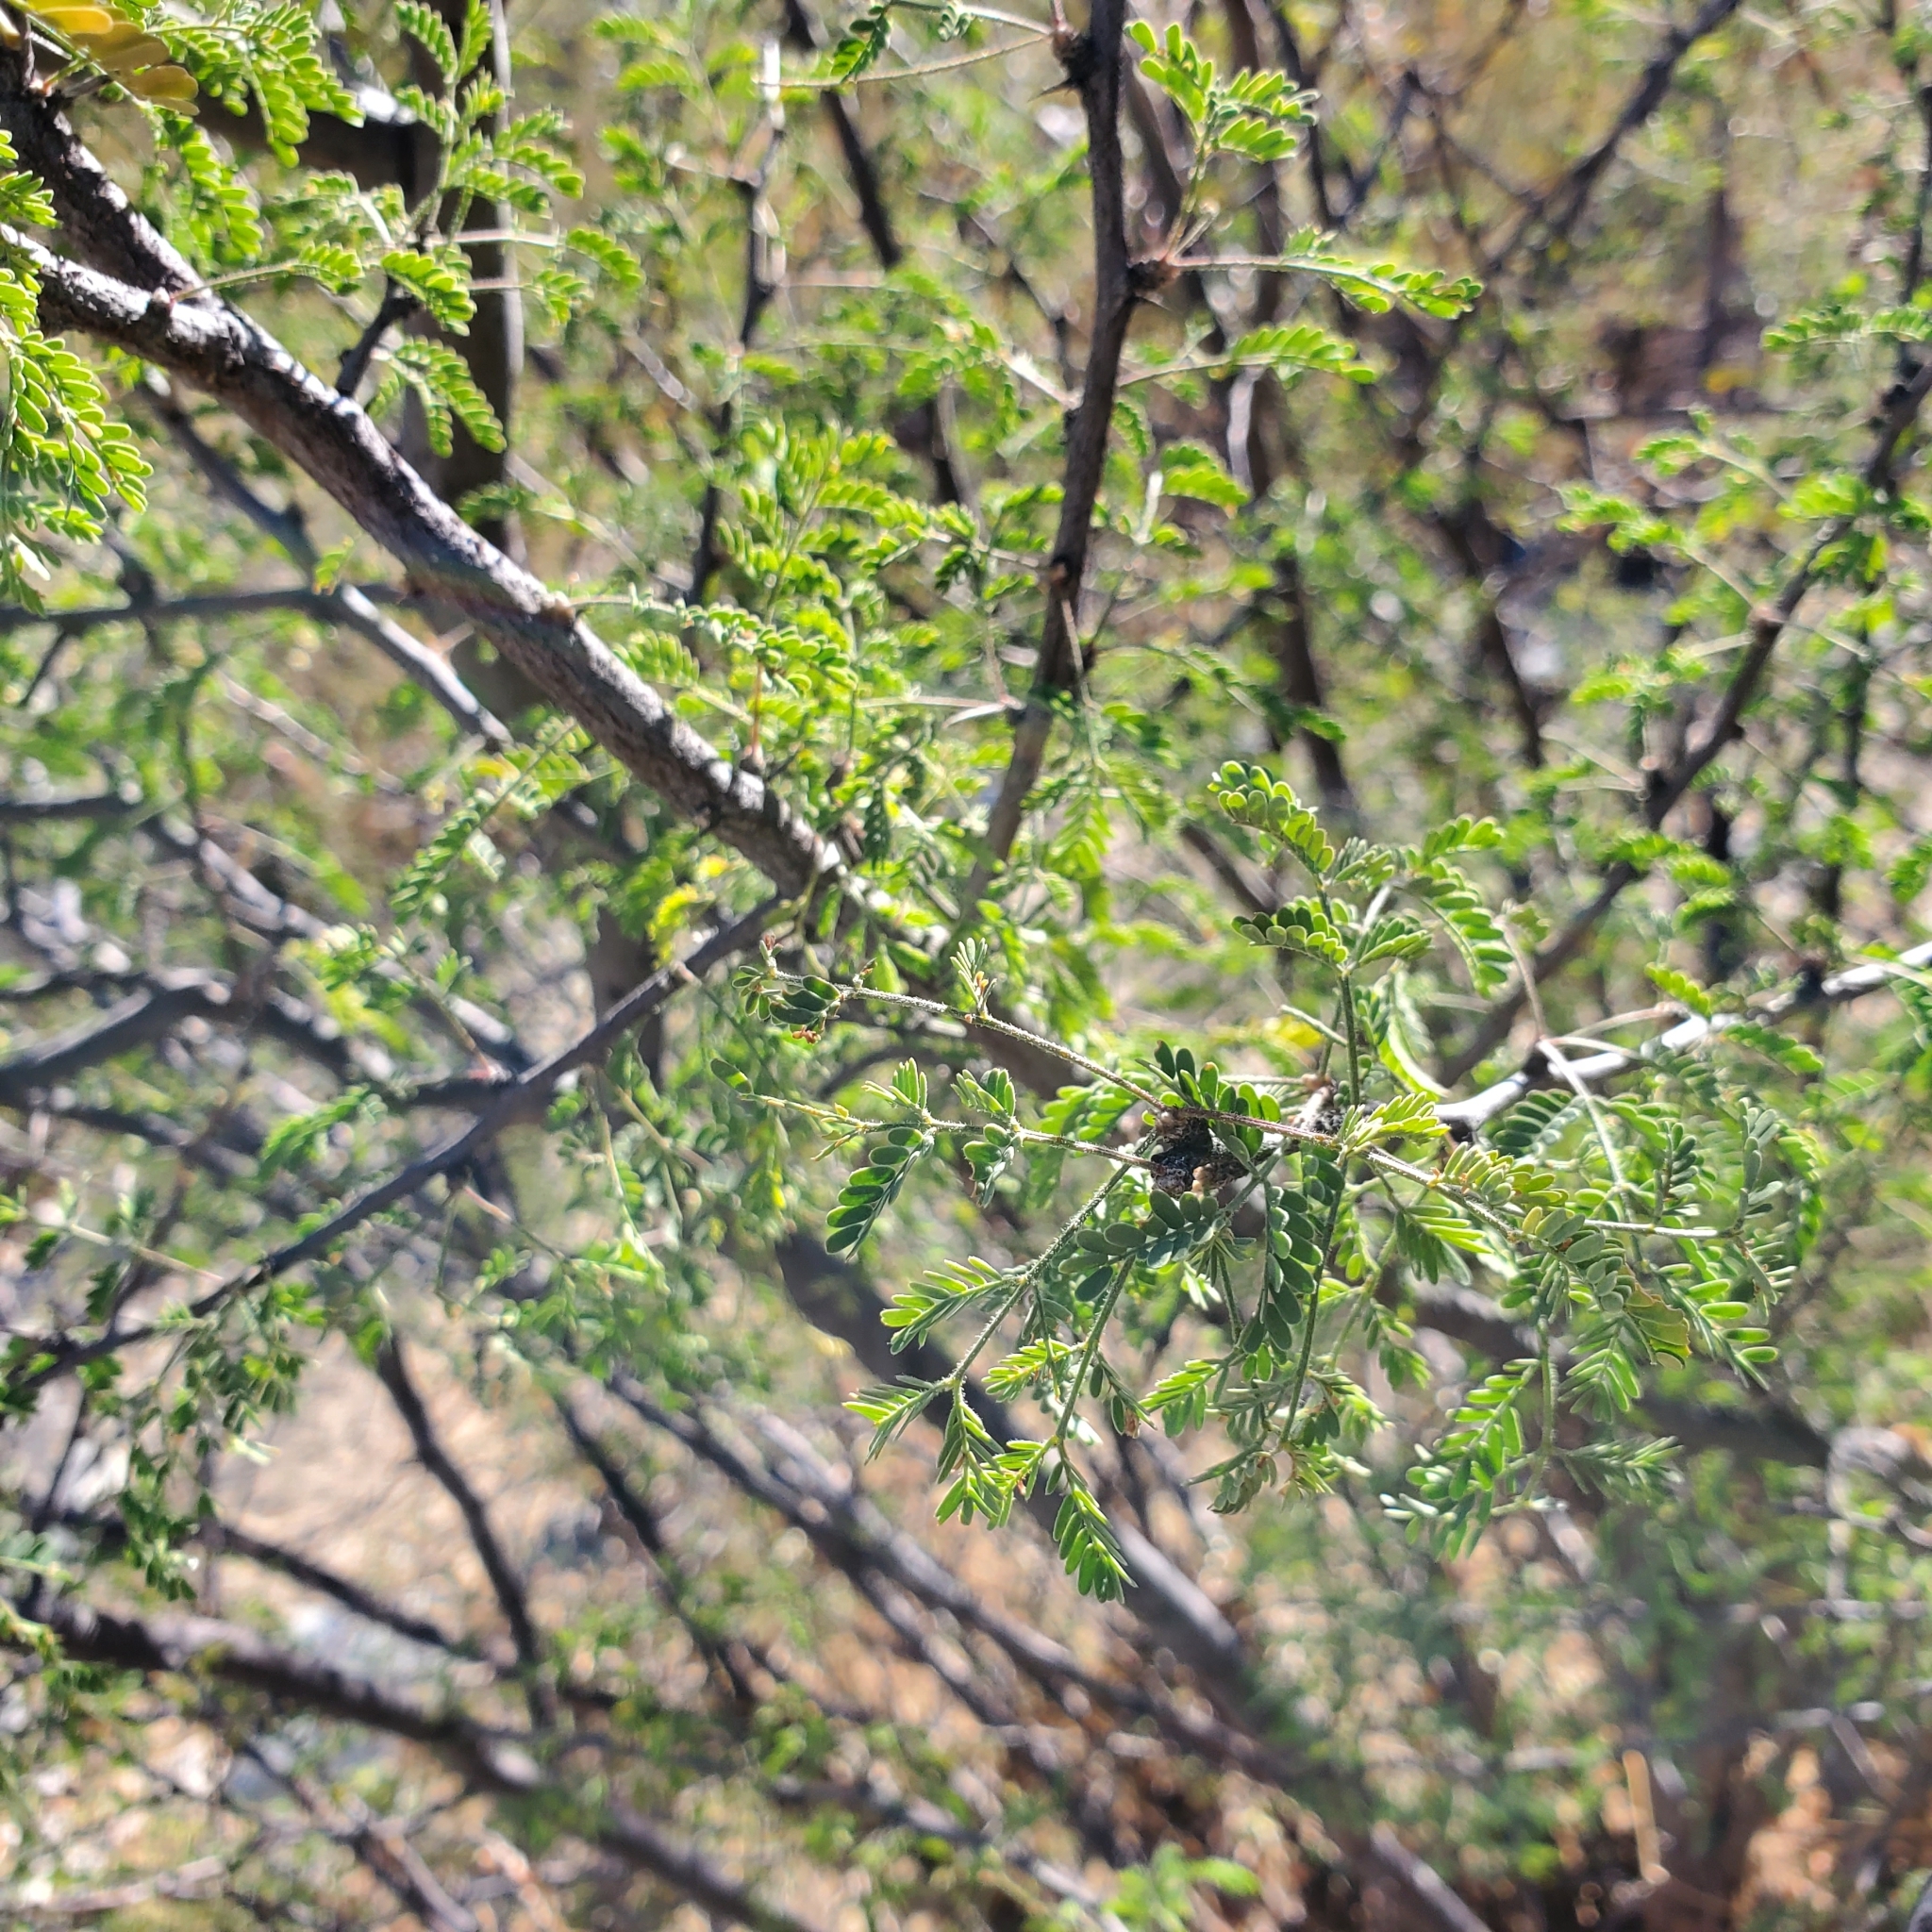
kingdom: Plantae
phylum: Tracheophyta
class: Magnoliopsida
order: Fabales
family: Fabaceae
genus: Prosopis
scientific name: Prosopis pubescens
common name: Screw-bean
